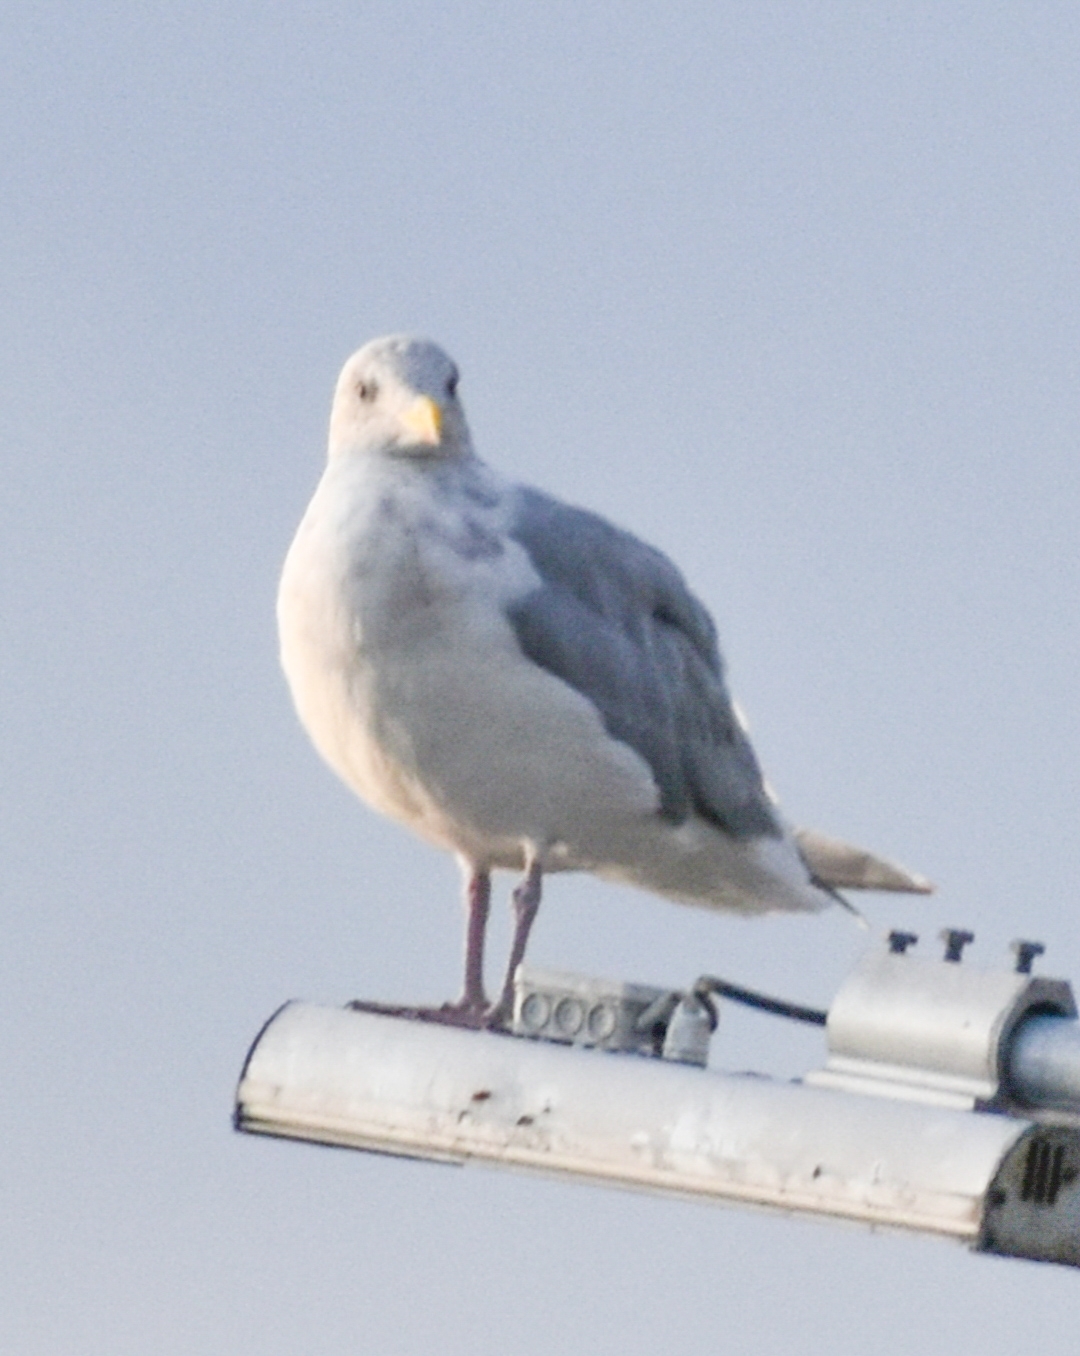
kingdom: Animalia
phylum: Chordata
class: Aves
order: Charadriiformes
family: Laridae
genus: Larus
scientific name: Larus glaucescens
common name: Glaucous-winged gull
